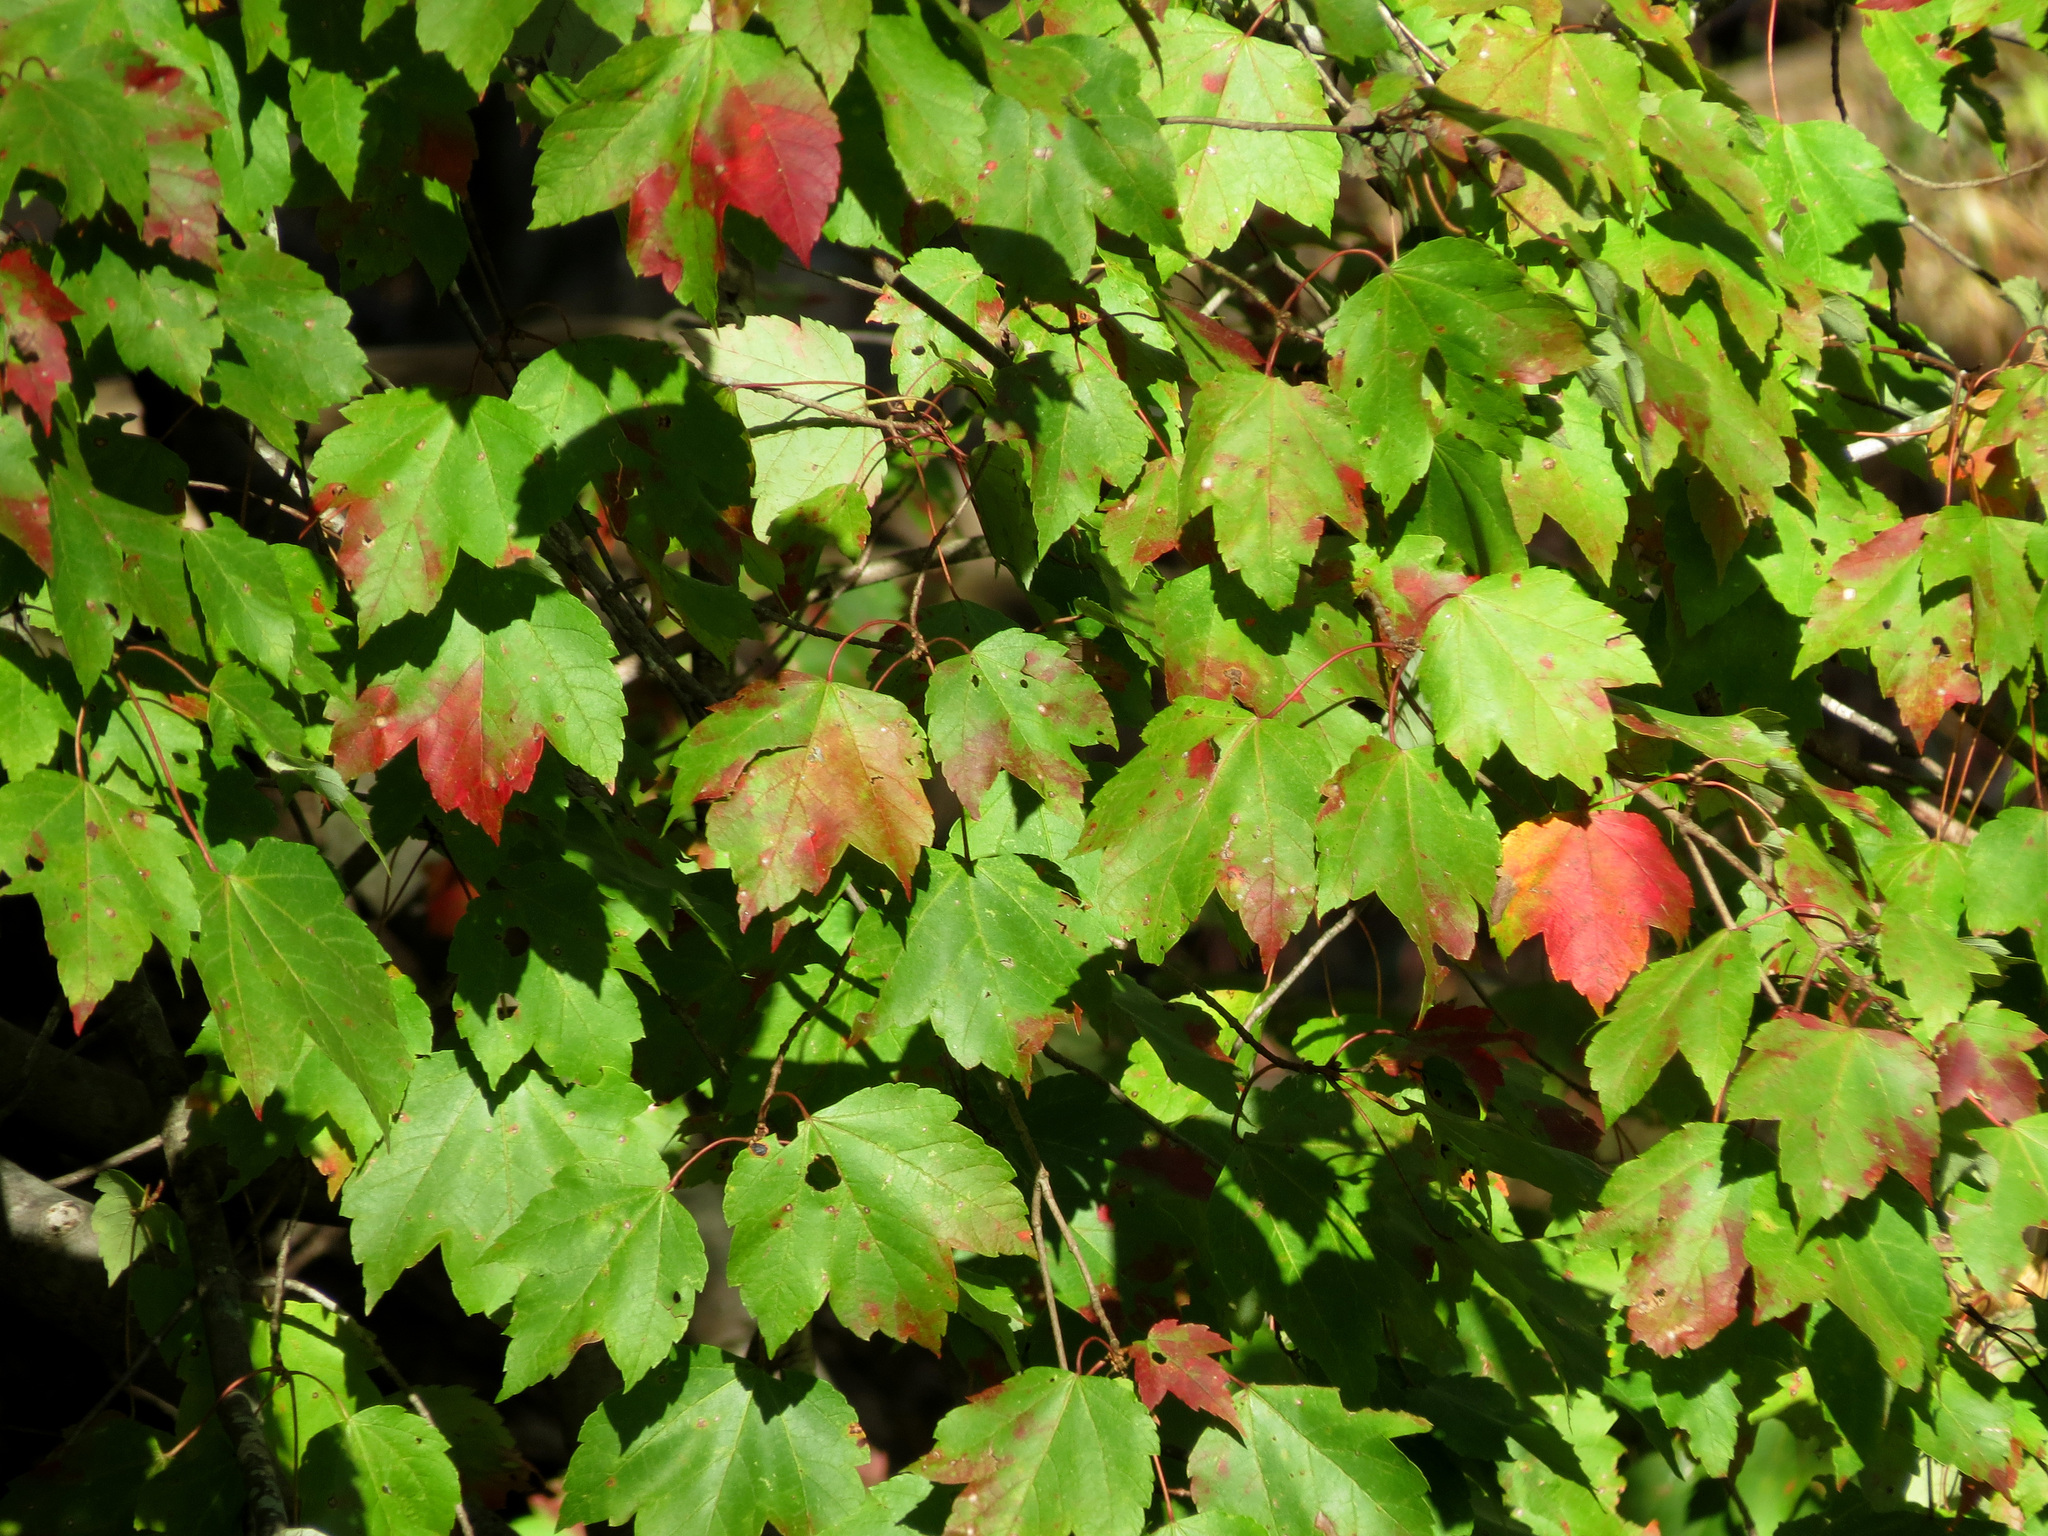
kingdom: Plantae
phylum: Tracheophyta
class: Magnoliopsida
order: Sapindales
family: Sapindaceae
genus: Acer
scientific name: Acer rubrum
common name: Red maple
